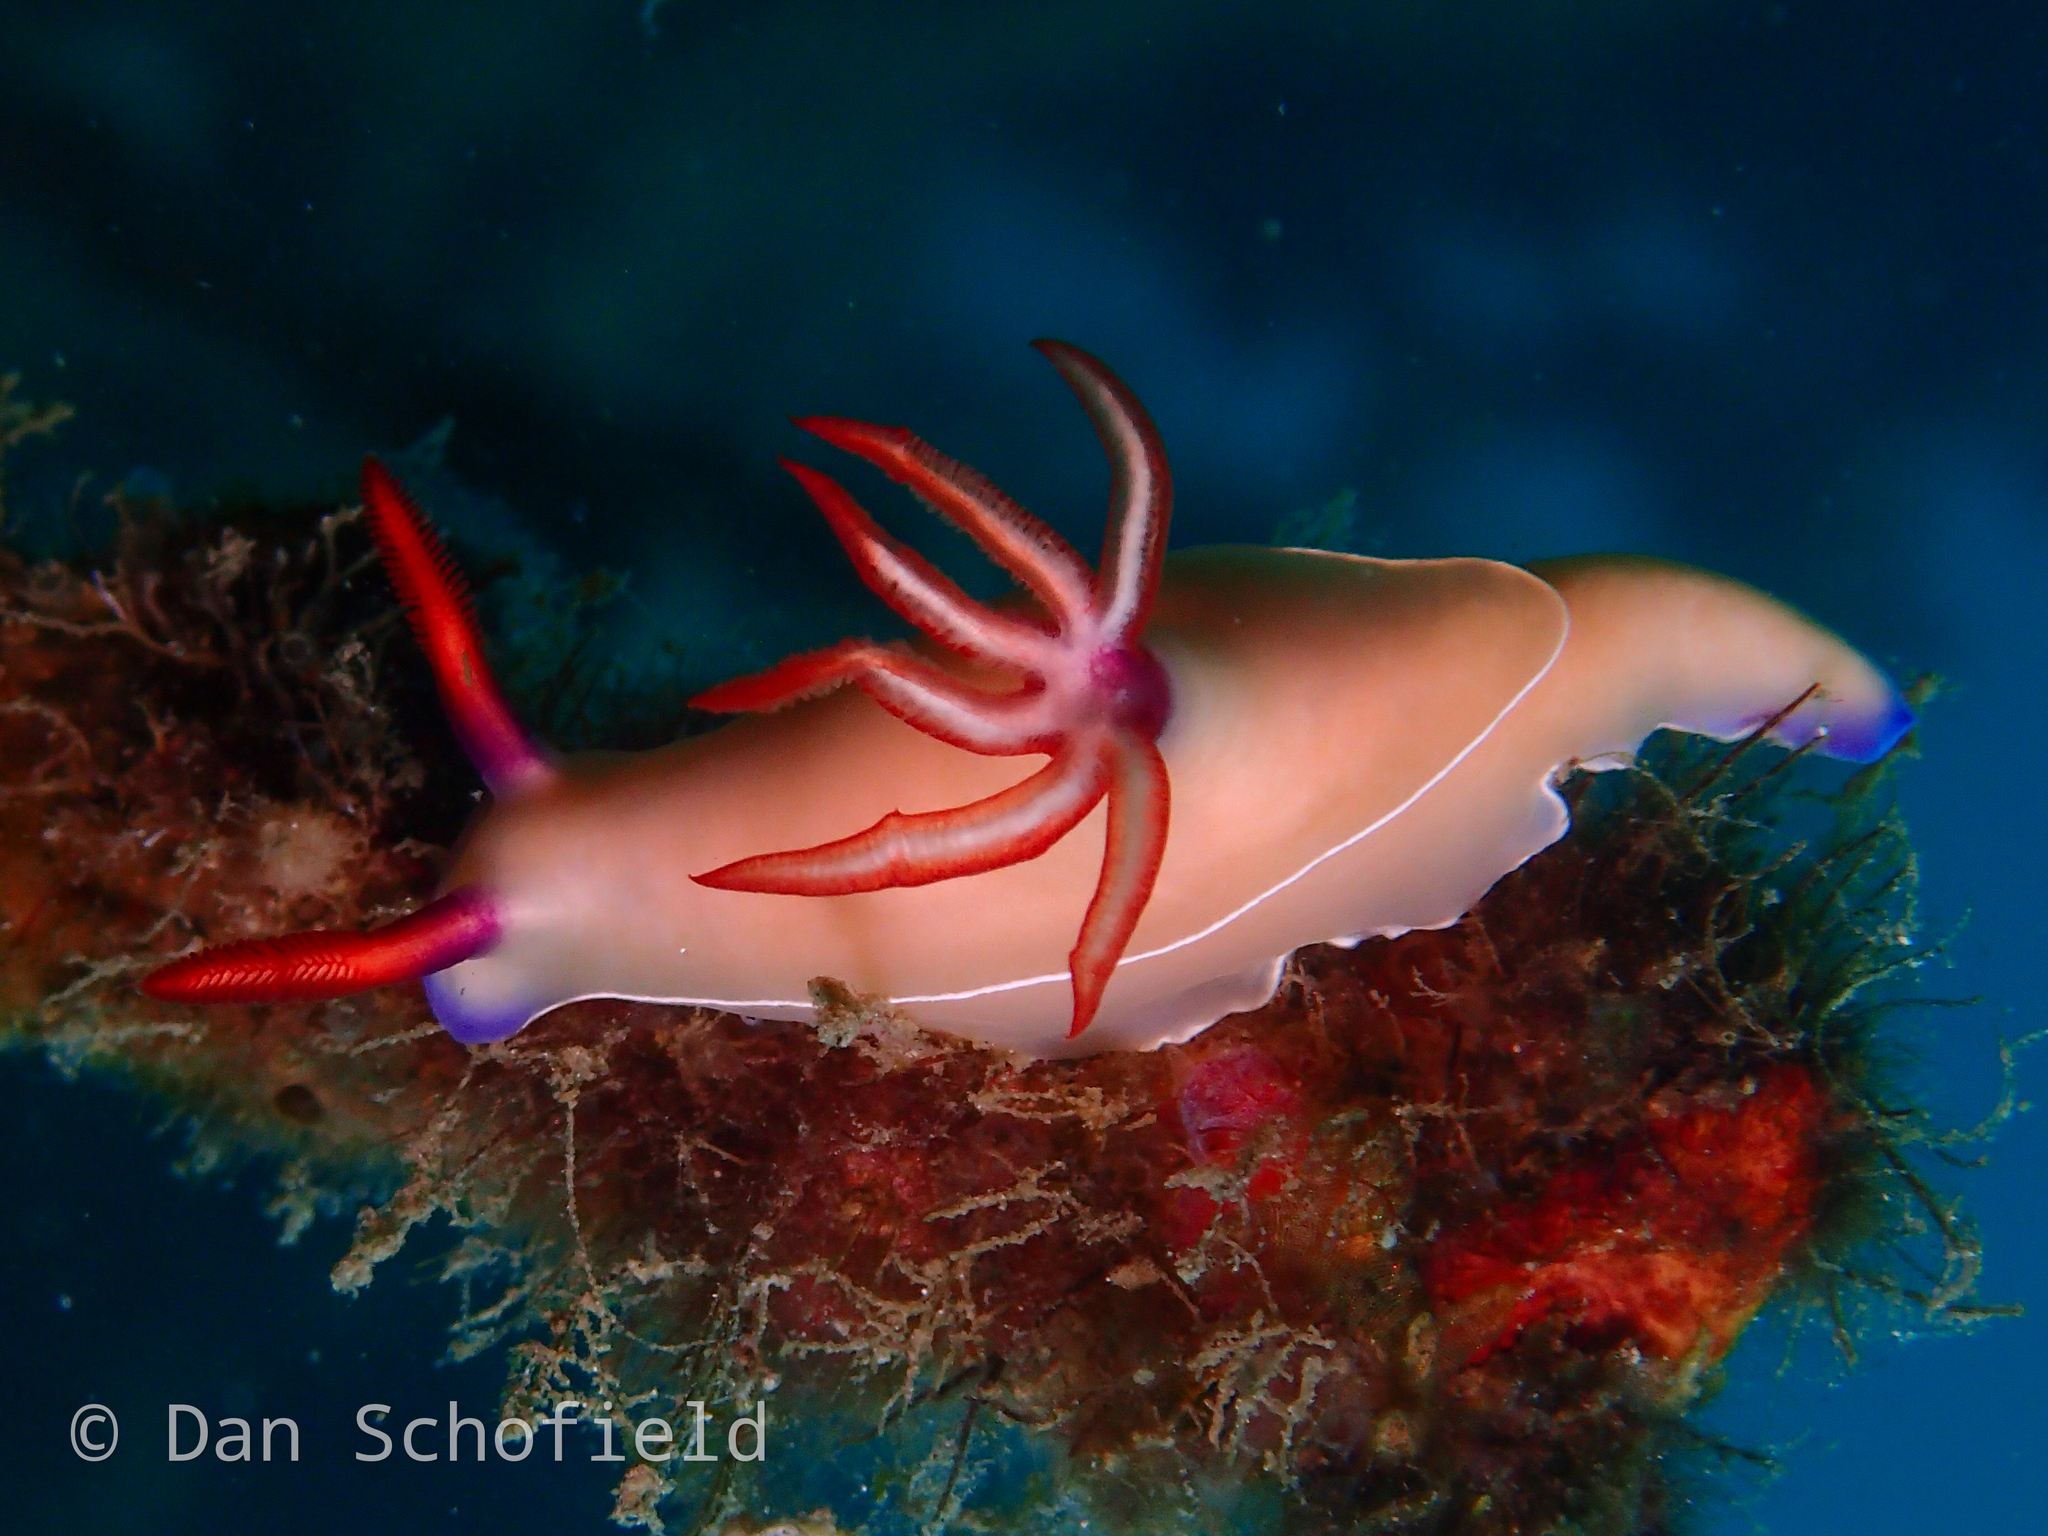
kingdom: Animalia
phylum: Mollusca
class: Gastropoda
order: Nudibranchia
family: Chromodorididae
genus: Hypselodoris
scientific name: Hypselodoris bullockii
